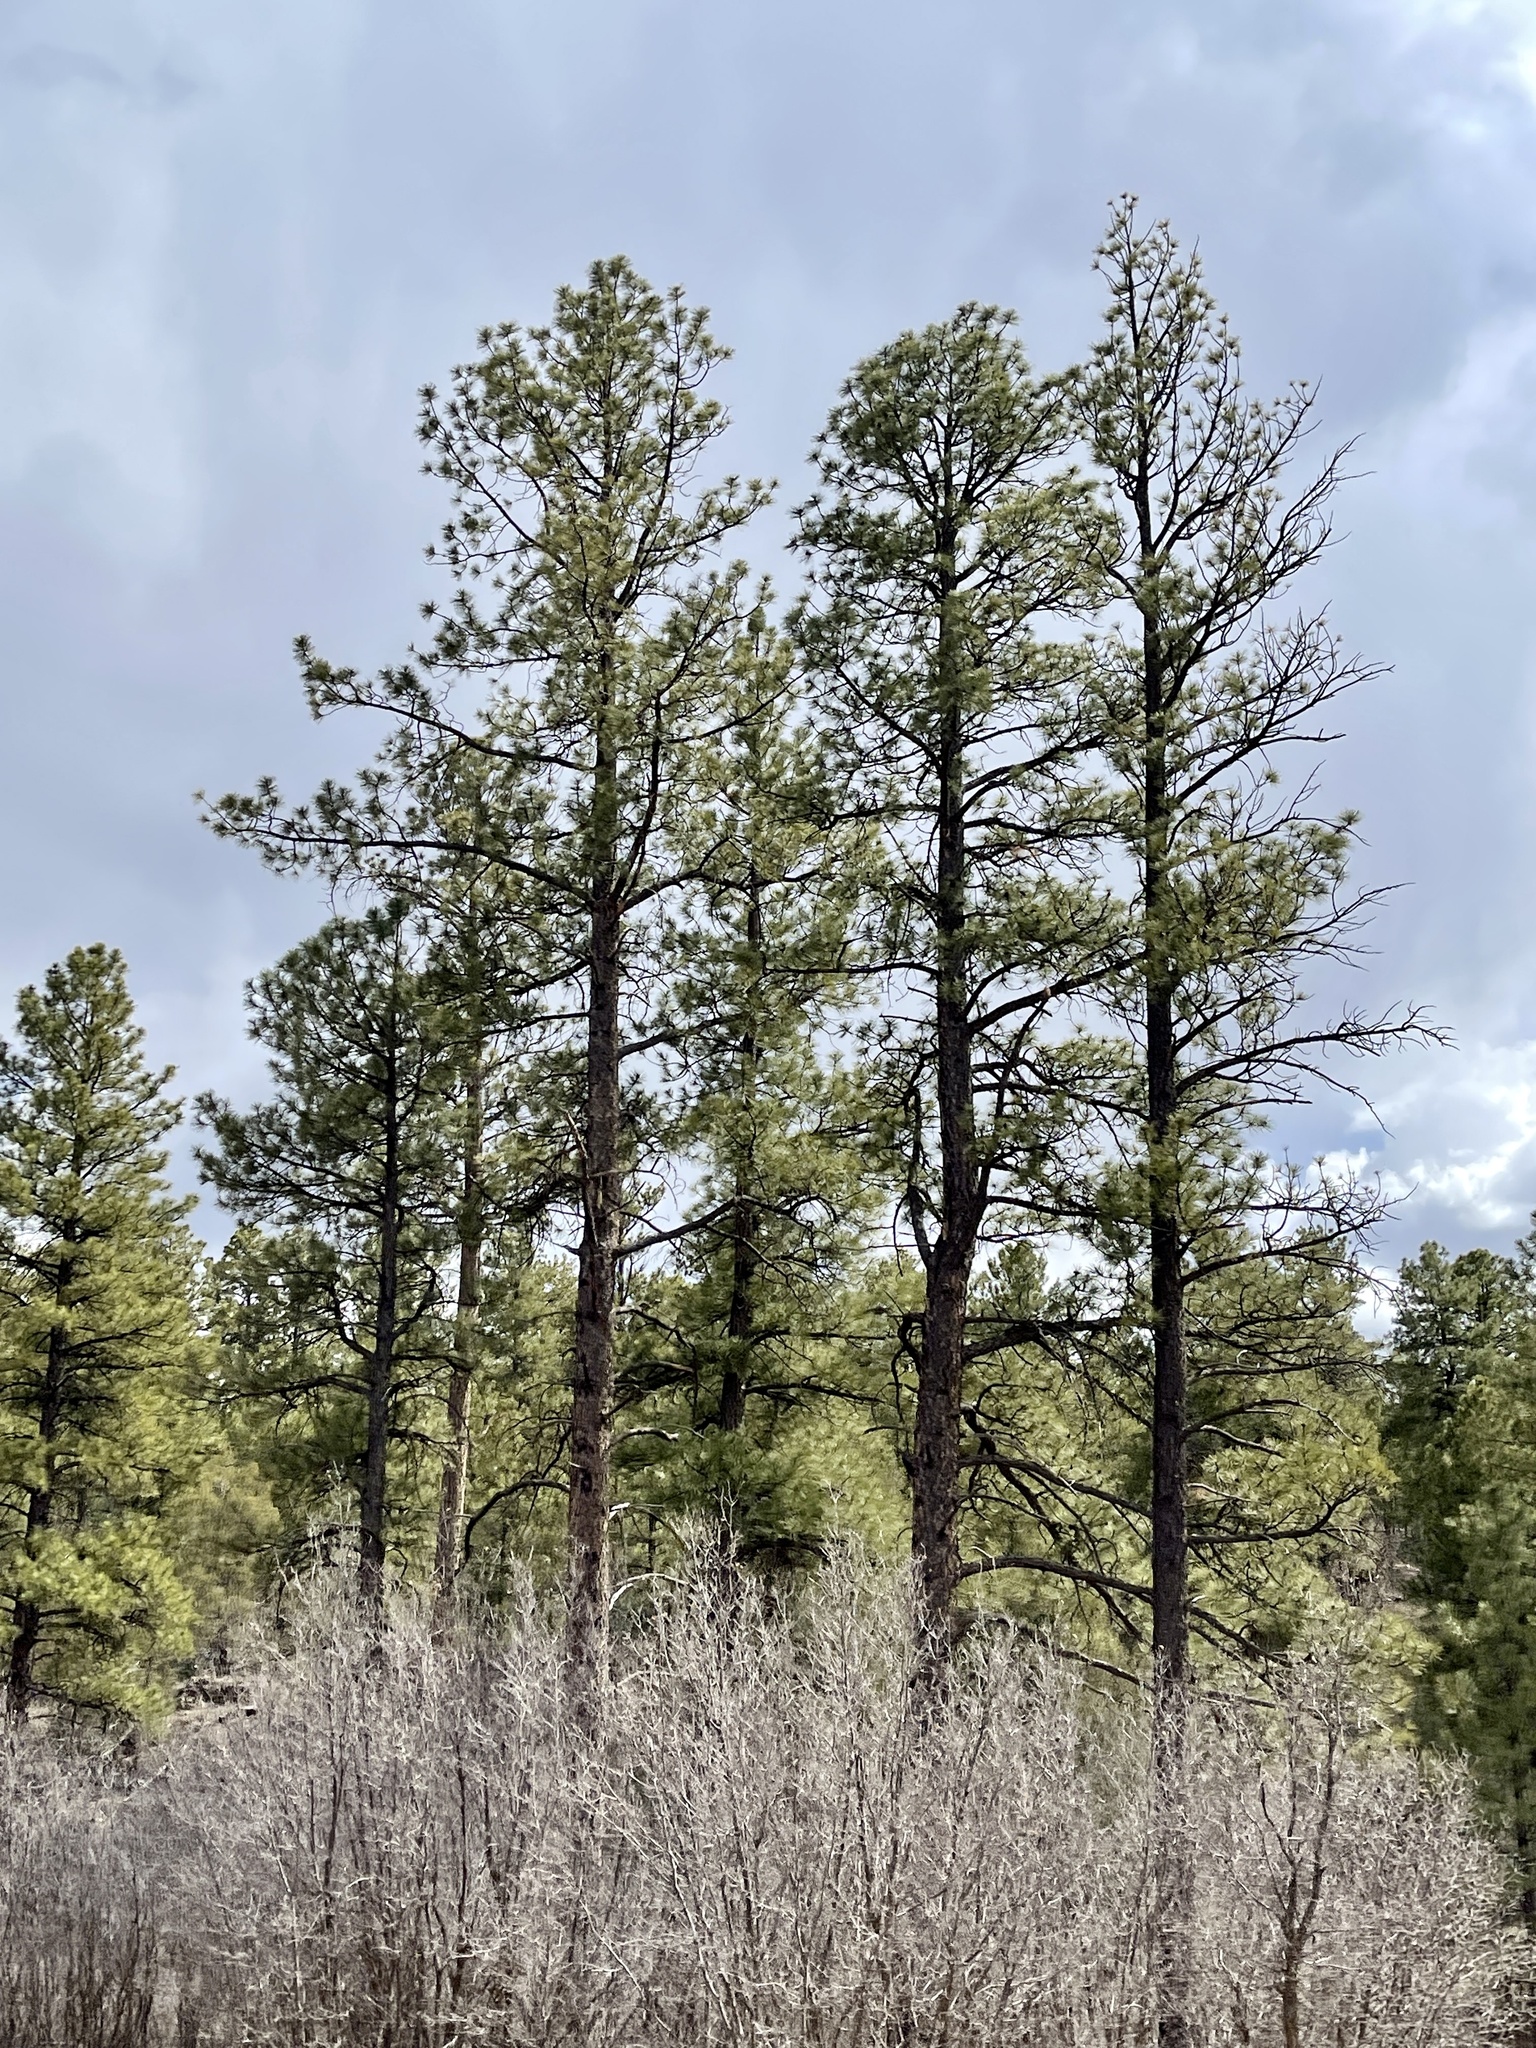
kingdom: Plantae
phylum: Tracheophyta
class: Pinopsida
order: Pinales
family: Pinaceae
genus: Pinus
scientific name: Pinus ponderosa
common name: Western yellow-pine
